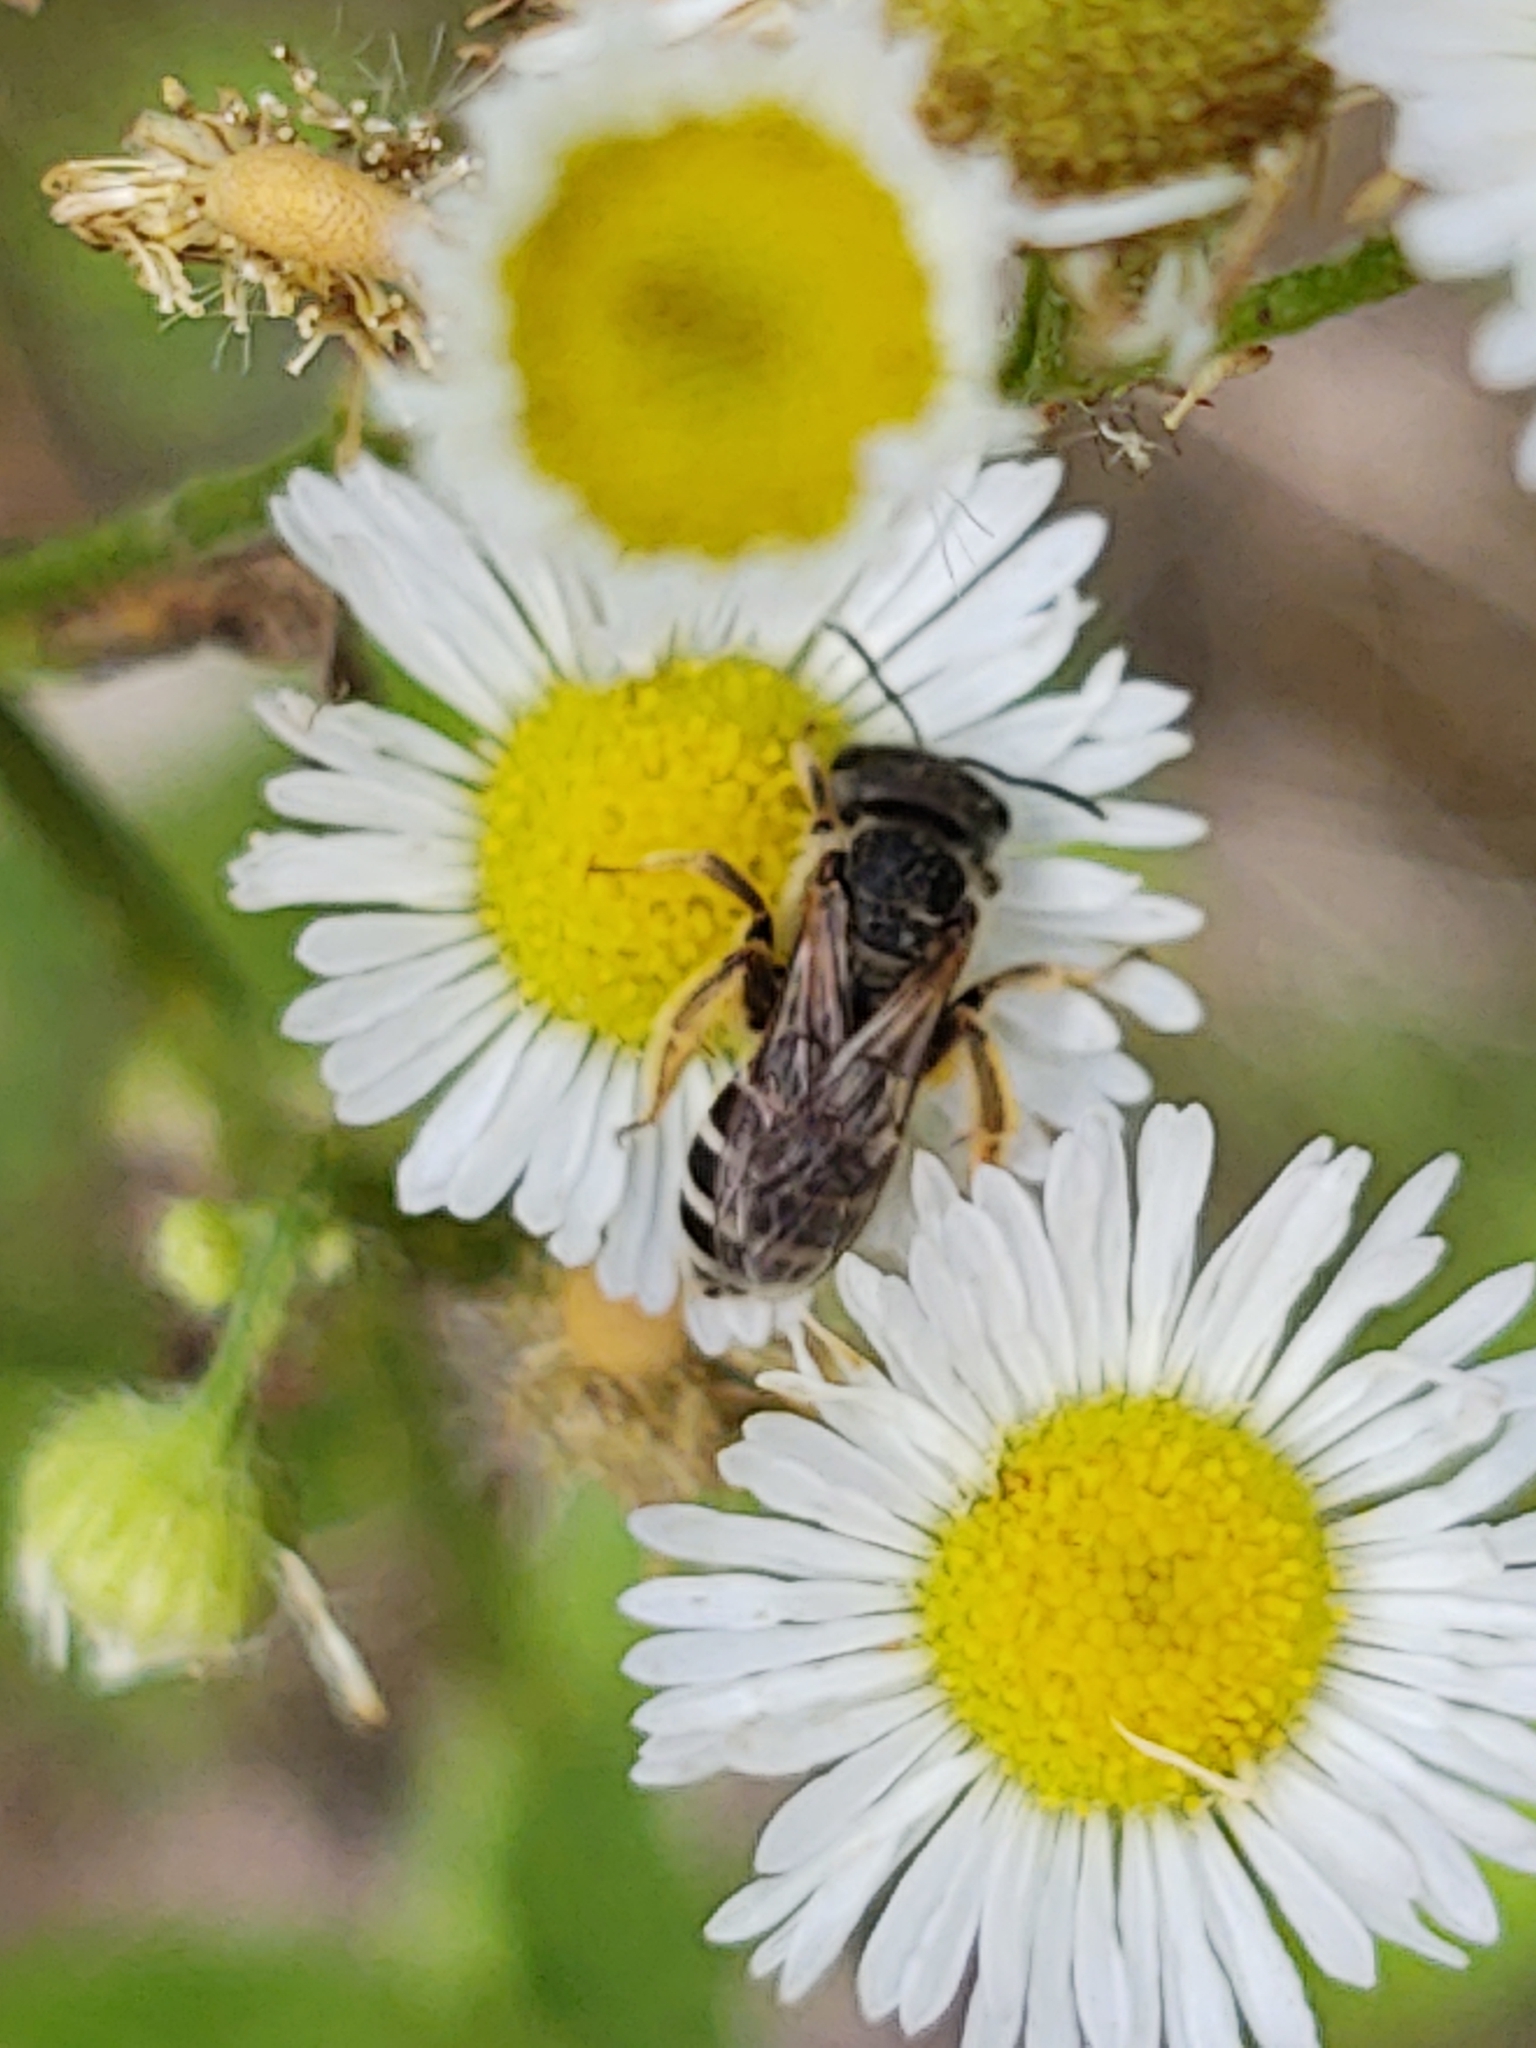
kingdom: Animalia
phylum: Arthropoda
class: Insecta
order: Hymenoptera
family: Halictidae
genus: Halictus
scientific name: Halictus ligatus
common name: Ligated furrow bee
